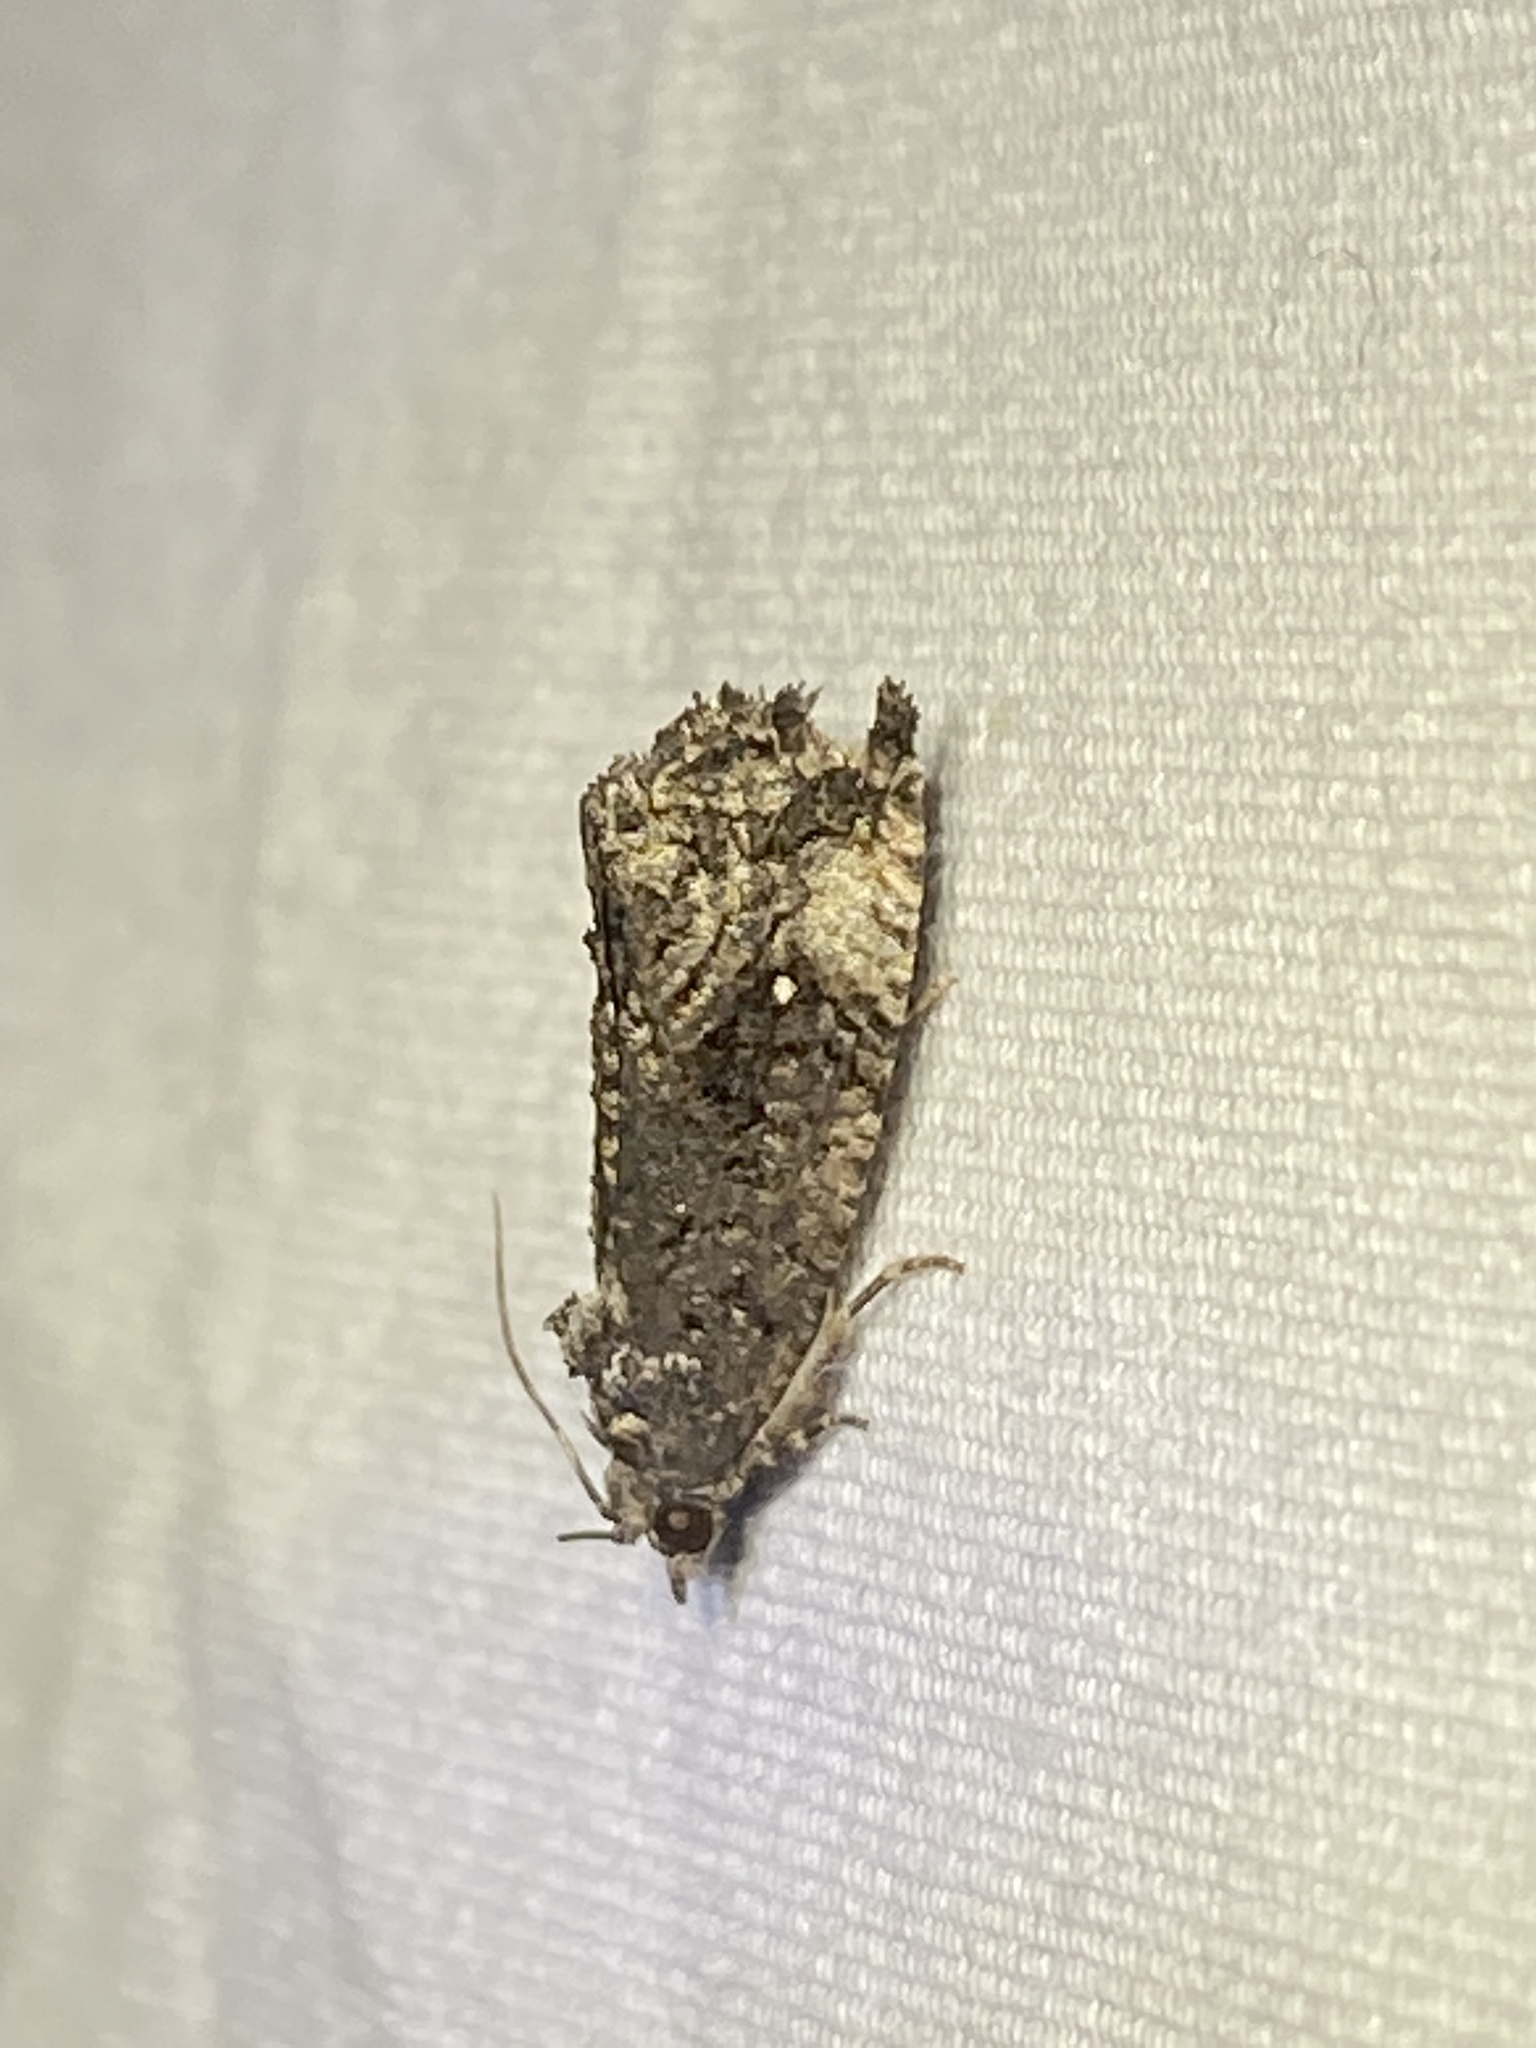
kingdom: Animalia
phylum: Arthropoda
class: Insecta
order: Lepidoptera
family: Tortricidae
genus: Gymnandrosoma
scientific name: Gymnandrosoma punctidiscanum
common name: Dotted ecdytolopha moth
